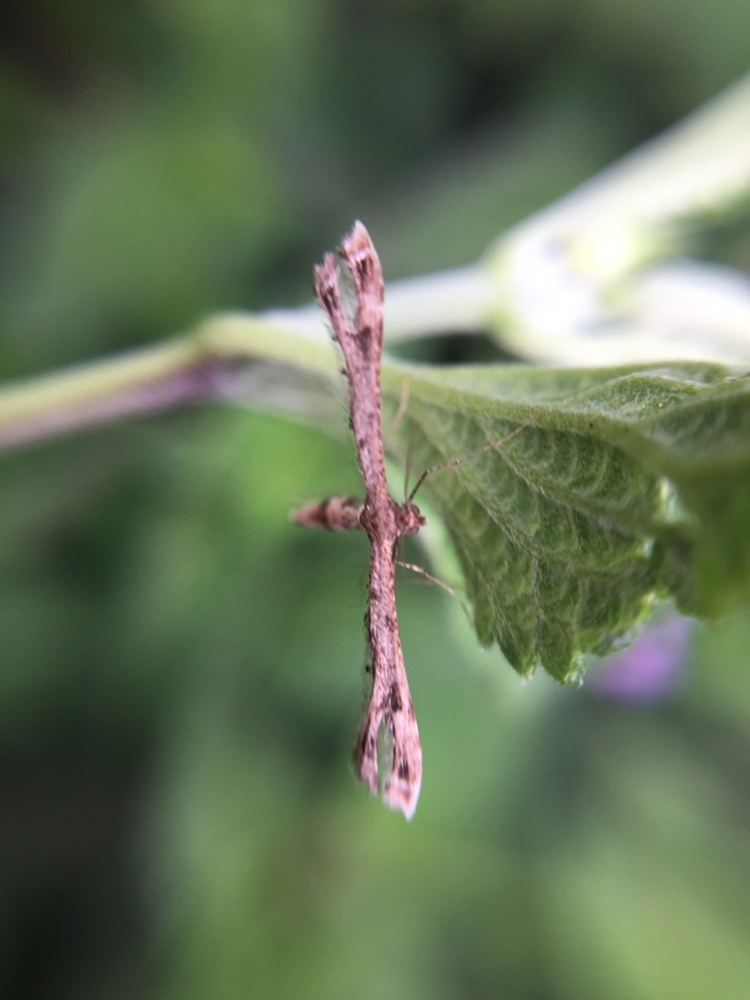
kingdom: Animalia
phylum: Arthropoda
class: Insecta
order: Lepidoptera
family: Pterophoridae
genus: Lantanophaga
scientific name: Lantanophaga pusillidactylus
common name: Moth
